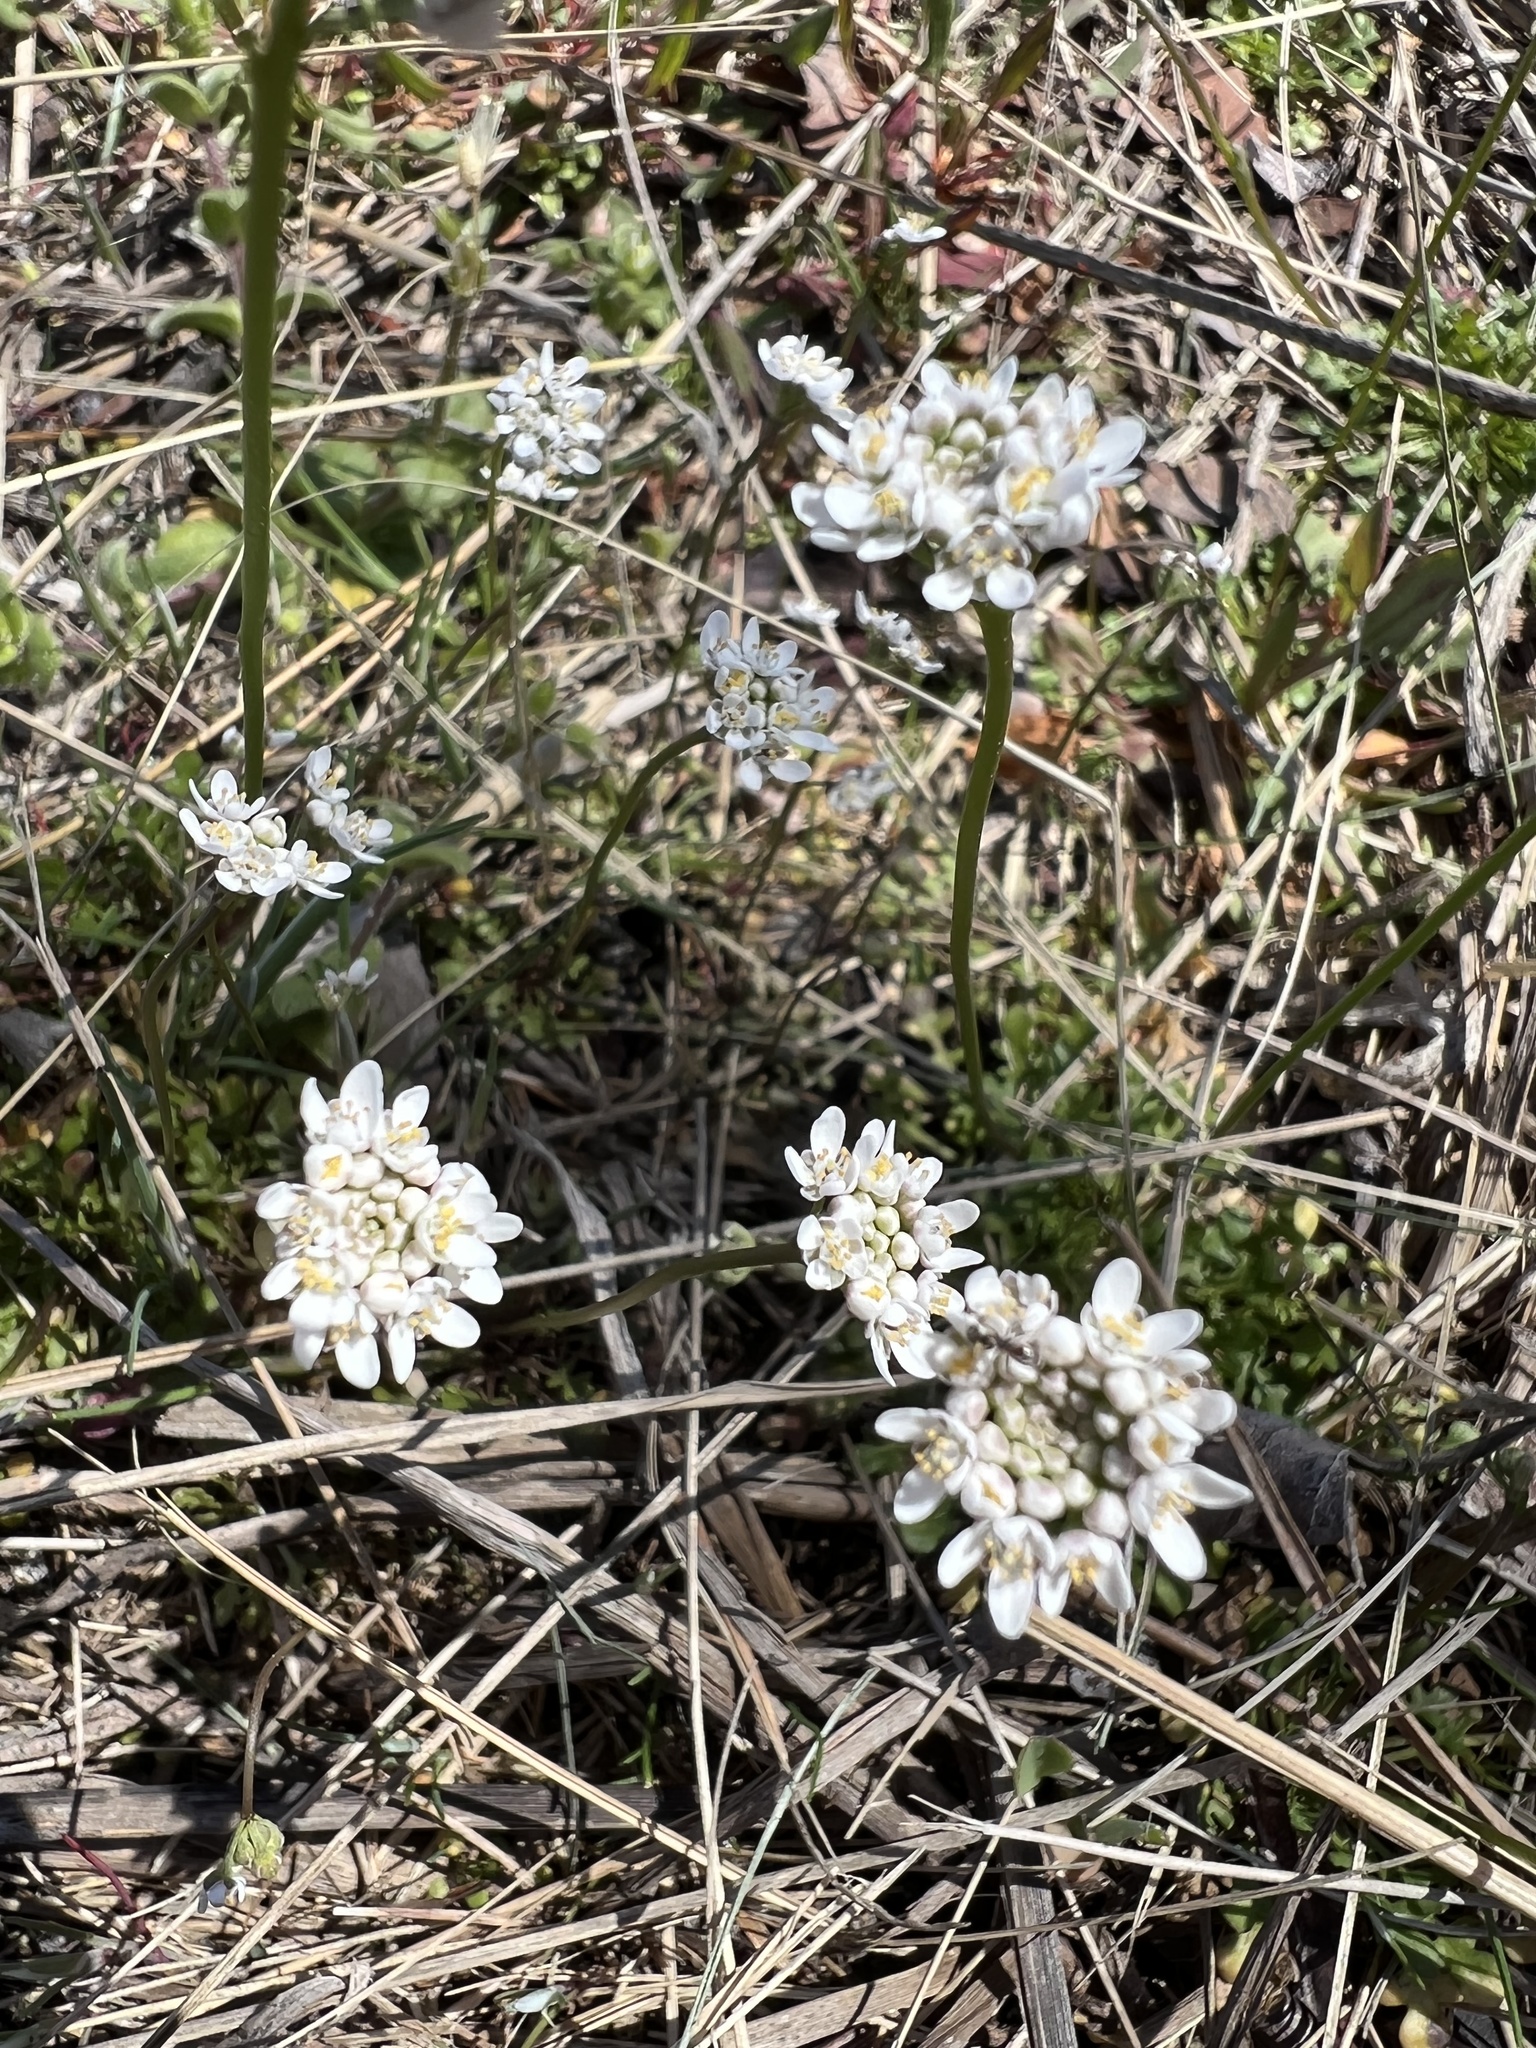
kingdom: Plantae
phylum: Tracheophyta
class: Magnoliopsida
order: Brassicales
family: Brassicaceae
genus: Teesdalia
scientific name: Teesdalia nudicaulis
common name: Shepherd's cress
